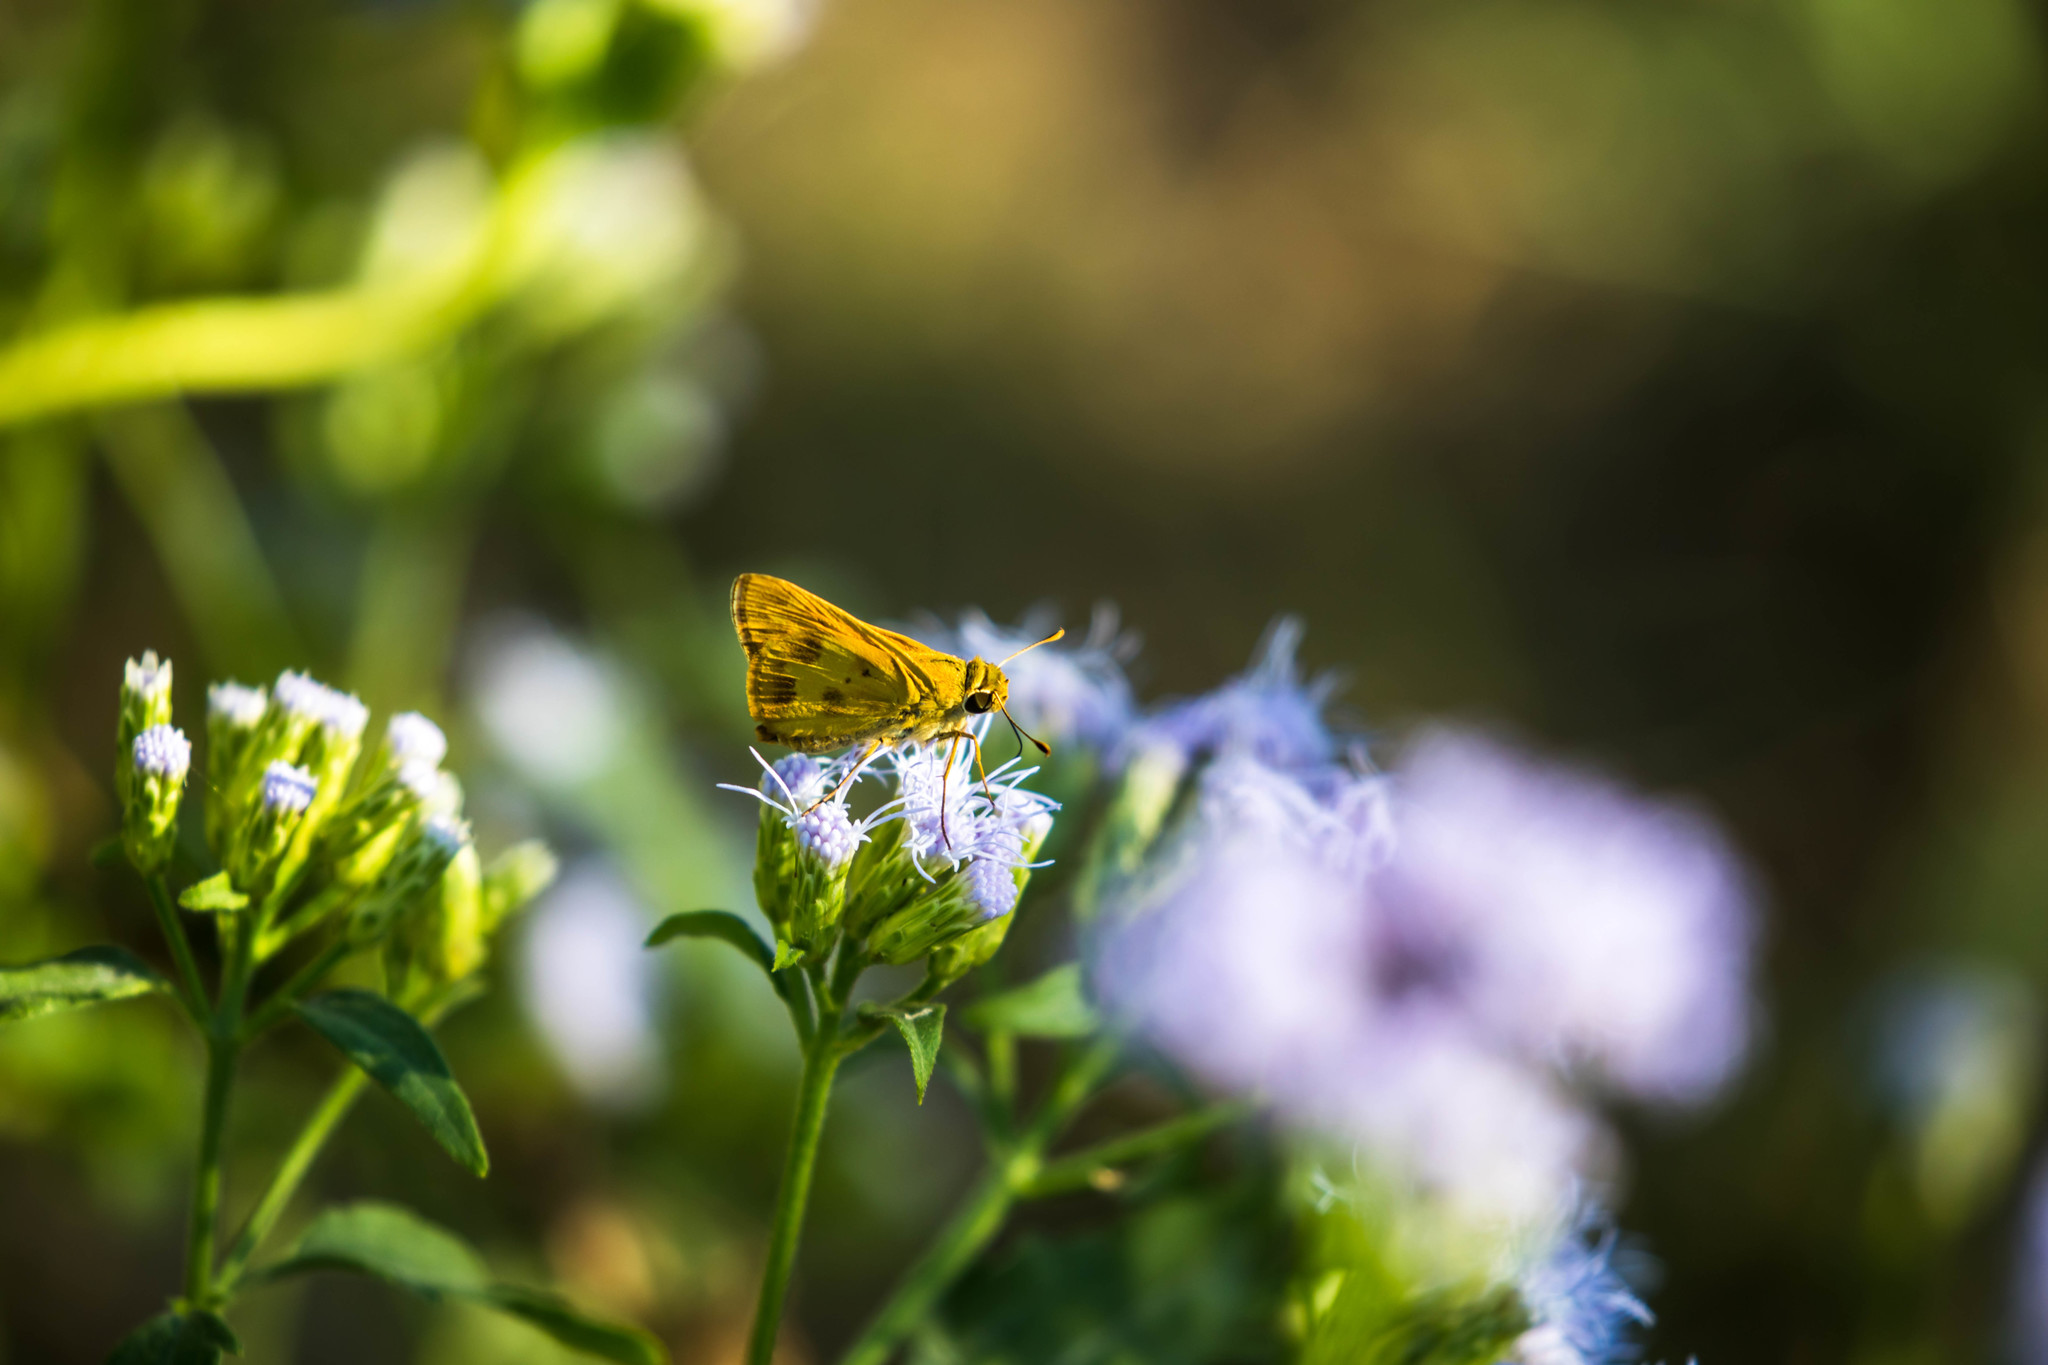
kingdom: Animalia
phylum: Arthropoda
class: Insecta
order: Lepidoptera
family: Hesperiidae
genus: Polites
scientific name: Polites vibex
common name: Whirlabout
